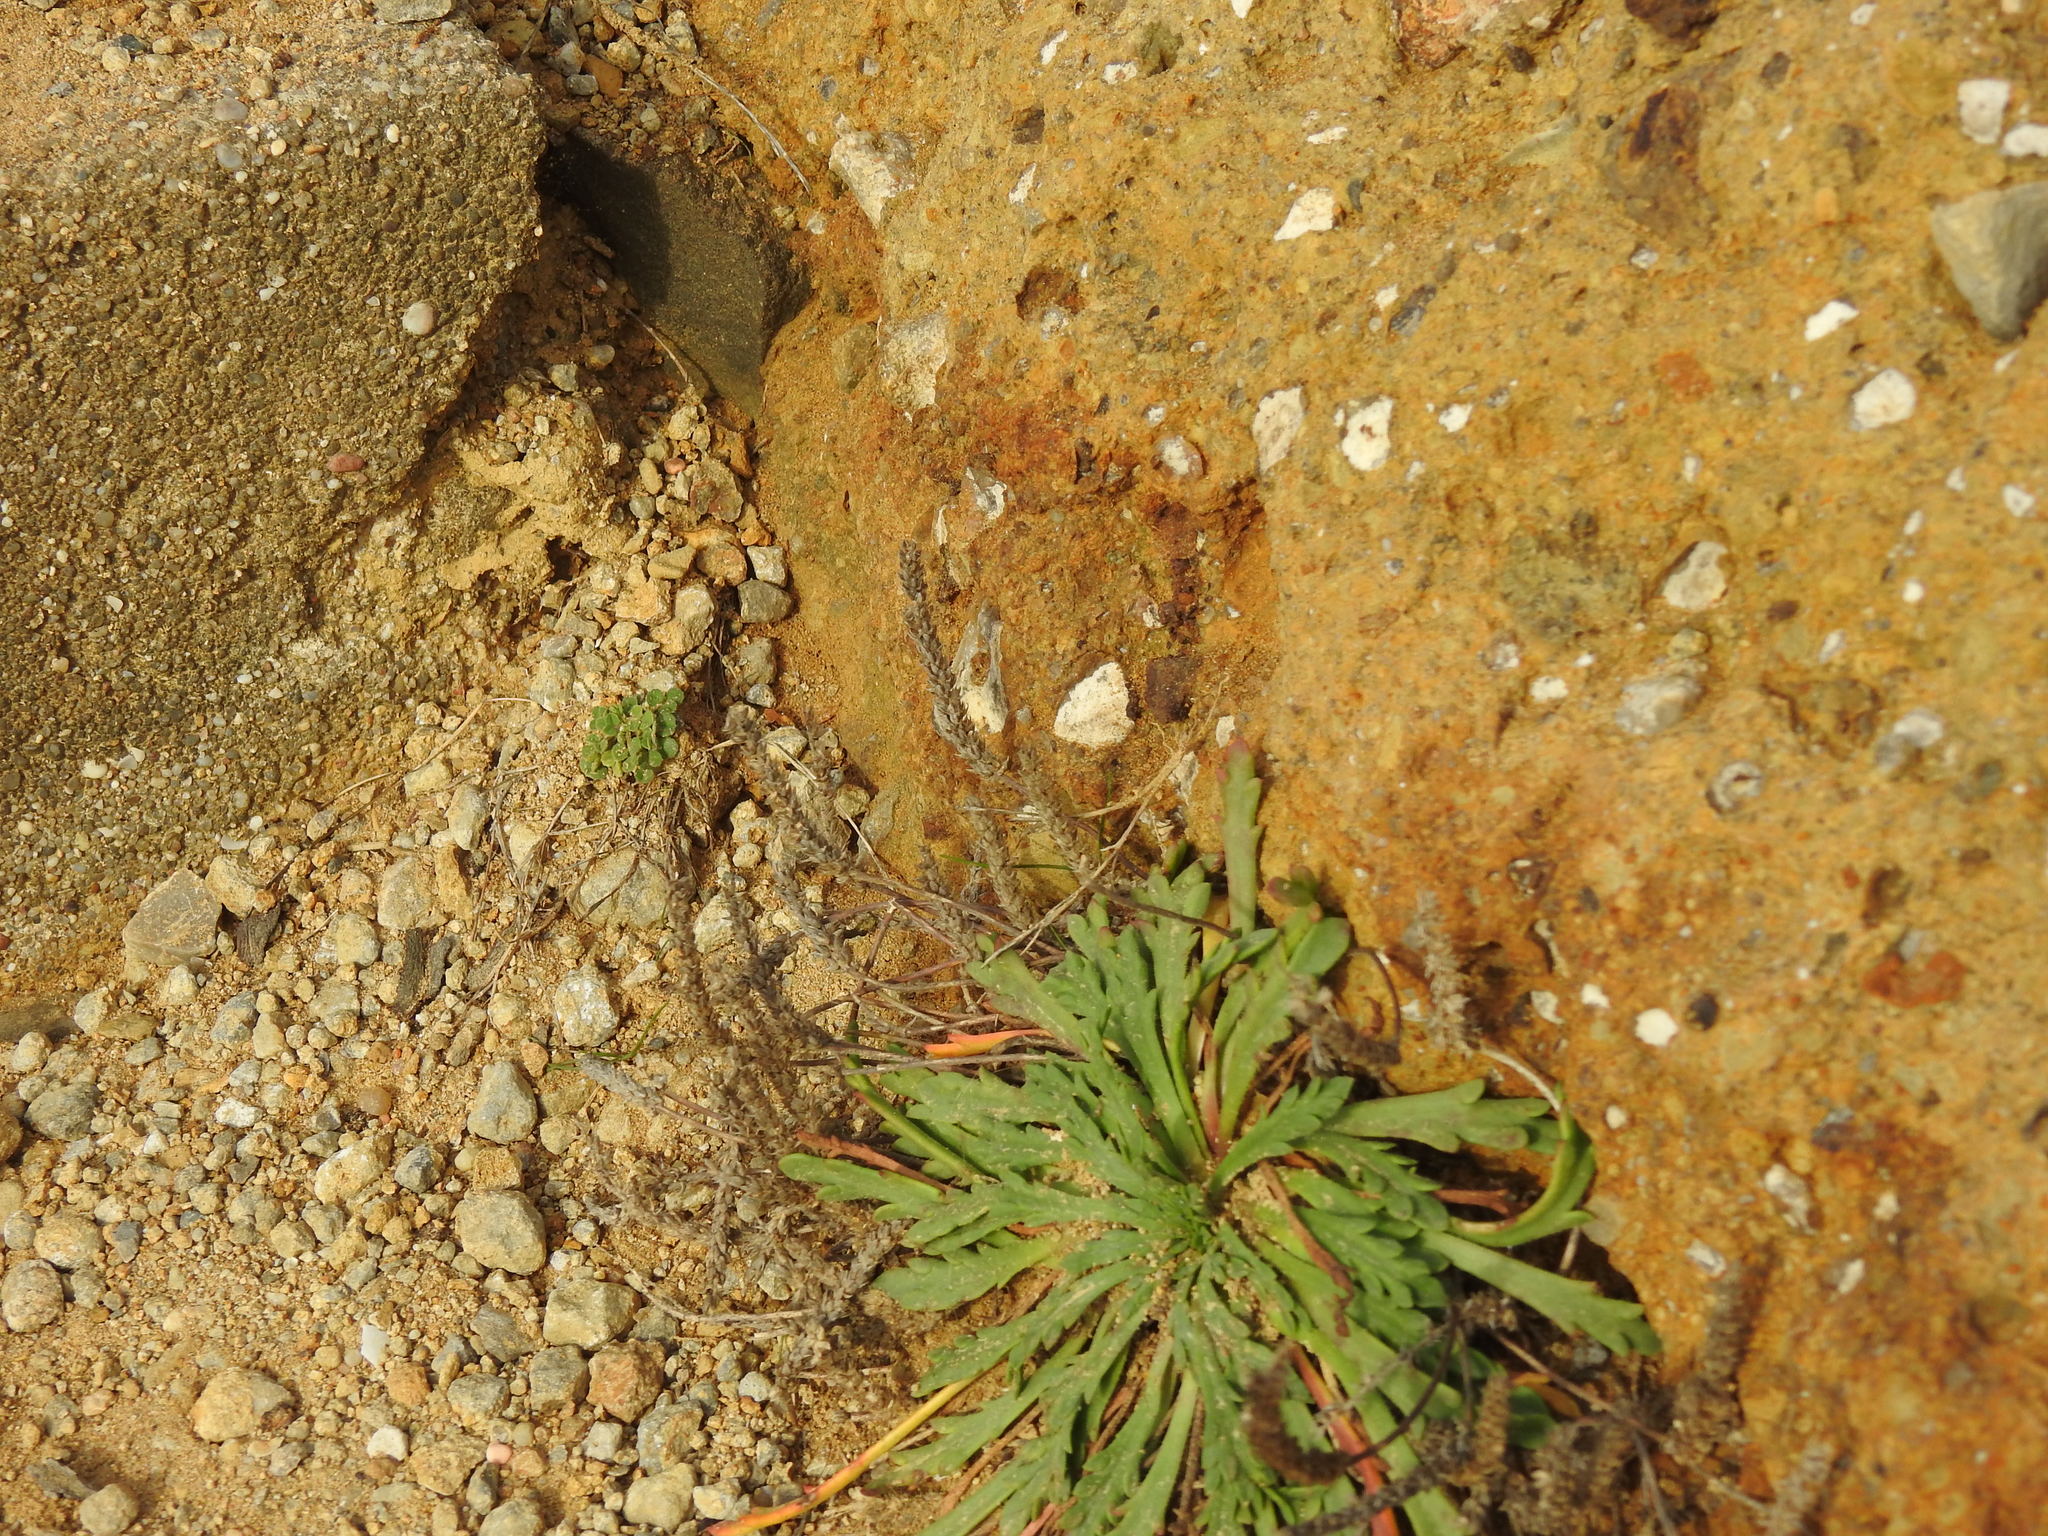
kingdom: Plantae
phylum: Tracheophyta
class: Magnoliopsida
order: Lamiales
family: Plantaginaceae
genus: Plantago
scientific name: Plantago coronopus
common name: Buck's-horn plantain
